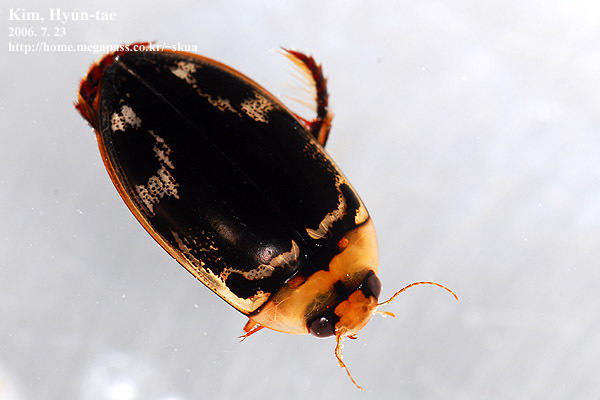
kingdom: Animalia
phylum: Arthropoda
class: Insecta
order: Coleoptera
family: Dytiscidae
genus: Hydaticus
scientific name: Hydaticus pacificus
